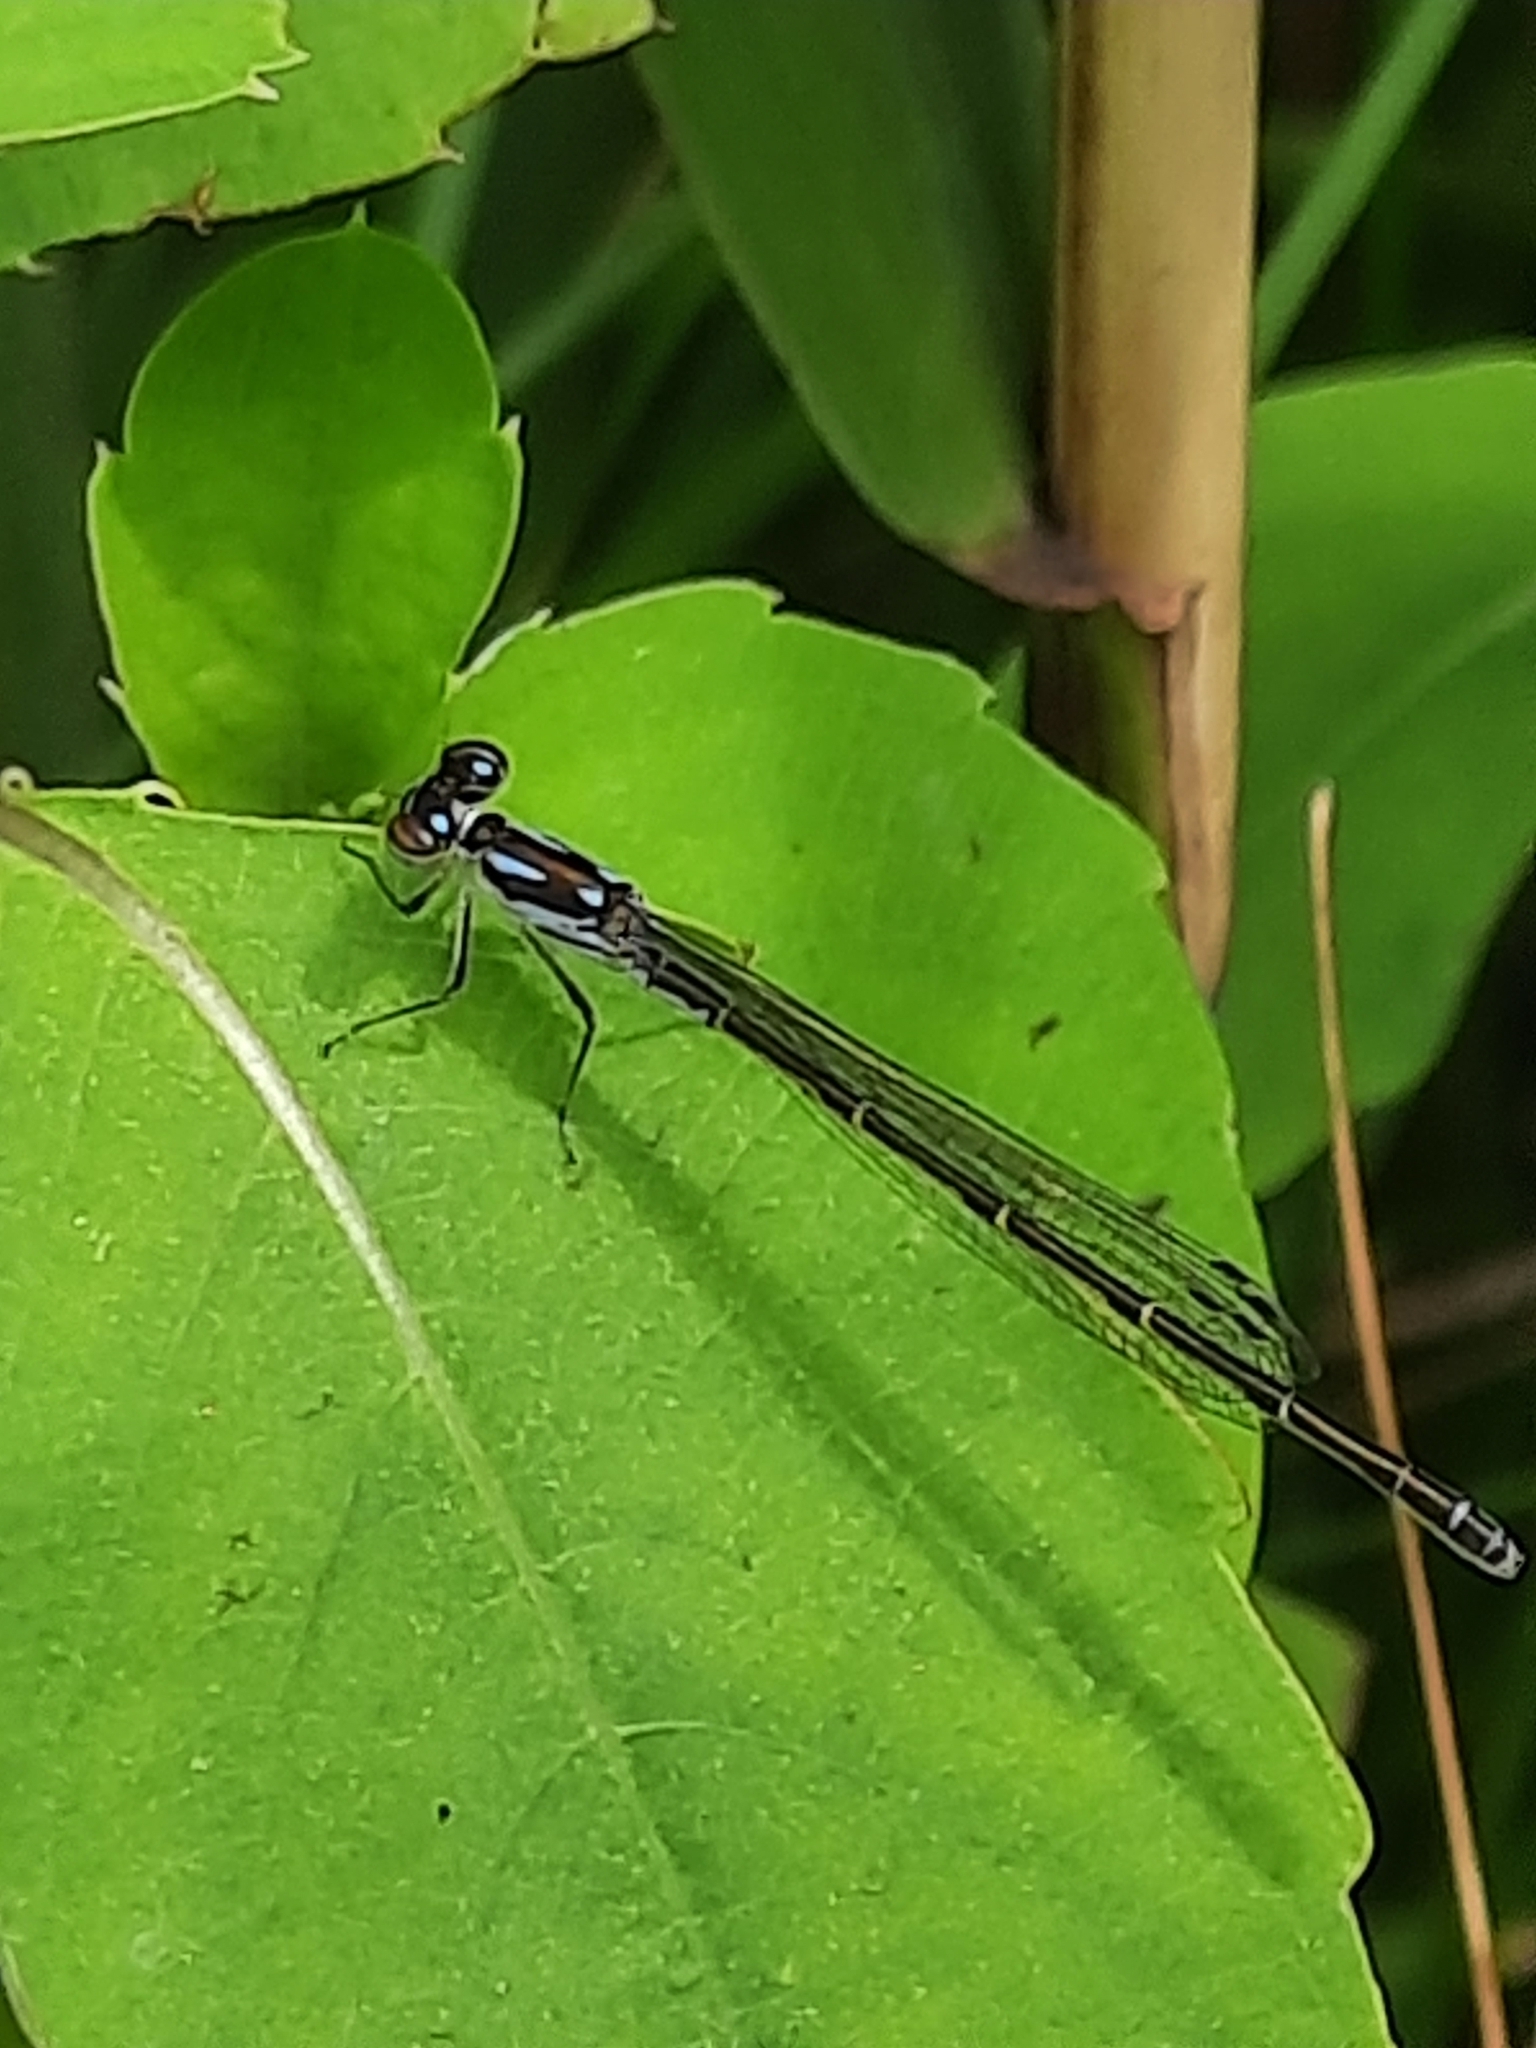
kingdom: Animalia
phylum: Arthropoda
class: Insecta
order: Odonata
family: Coenagrionidae
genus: Ischnura
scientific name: Ischnura posita
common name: Fragile forktail
